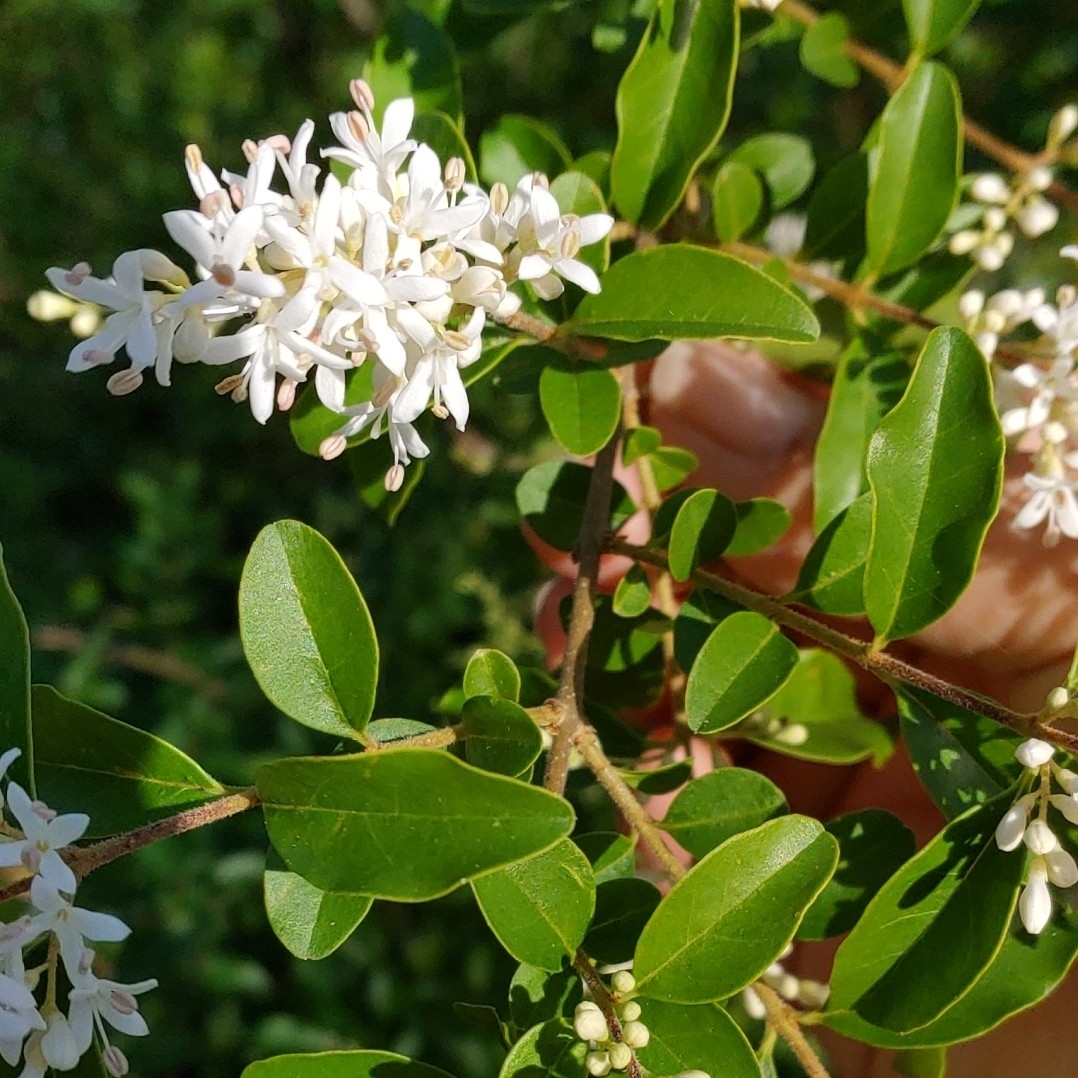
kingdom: Plantae
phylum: Tracheophyta
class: Magnoliopsida
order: Lamiales
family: Oleaceae
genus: Ligustrum
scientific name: Ligustrum sinense
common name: Chinese privet
